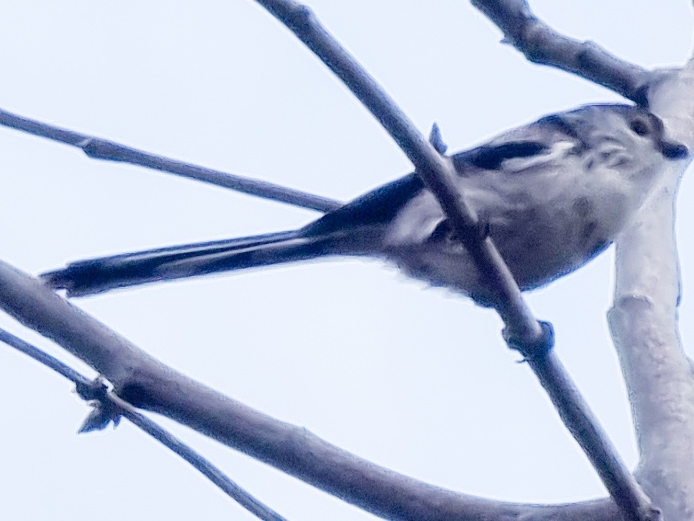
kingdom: Animalia
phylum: Chordata
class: Aves
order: Passeriformes
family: Aegithalidae
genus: Aegithalos
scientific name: Aegithalos caudatus
